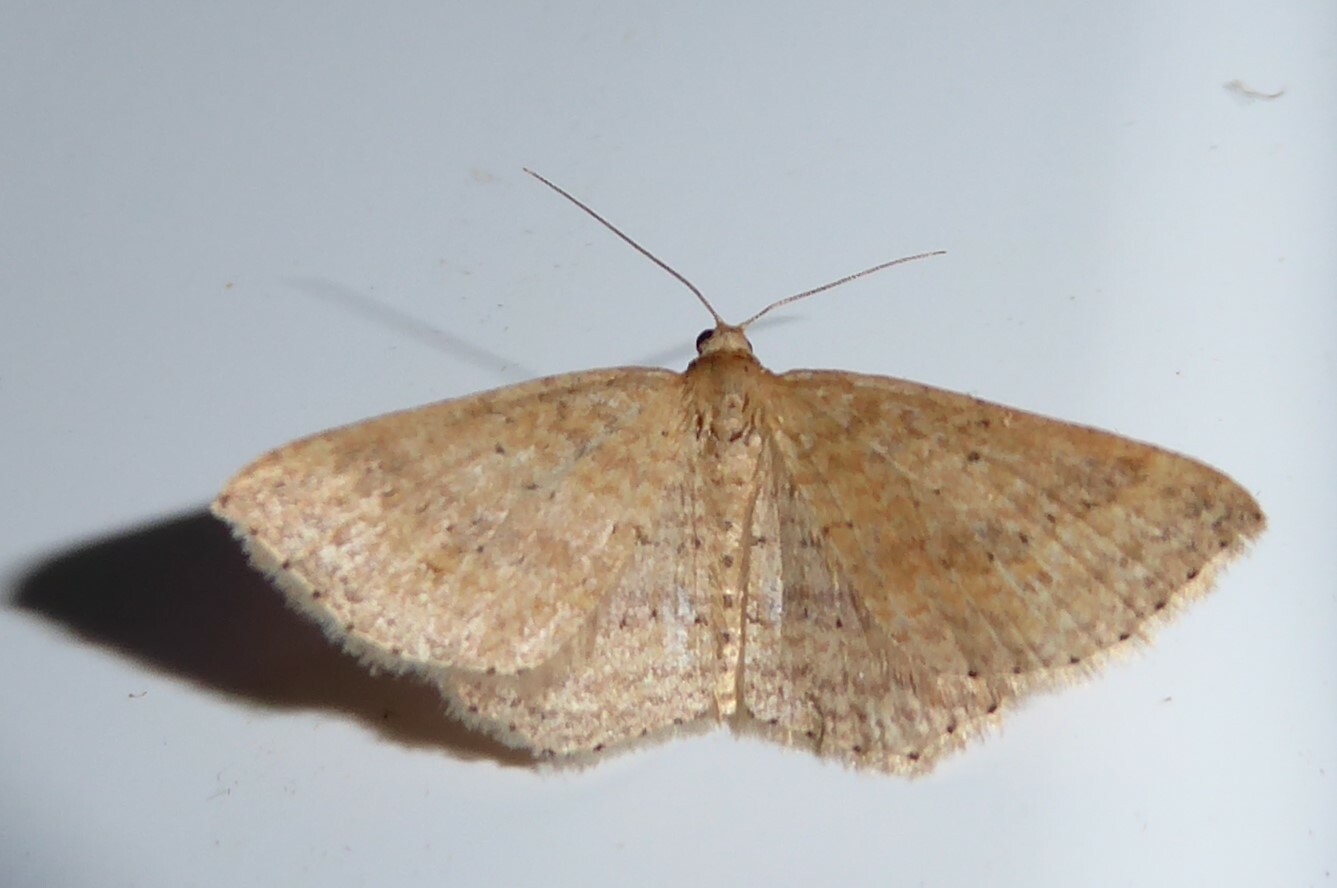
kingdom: Animalia
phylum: Arthropoda
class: Insecta
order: Lepidoptera
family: Geometridae
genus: Epicyme
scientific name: Epicyme rubropunctaria
